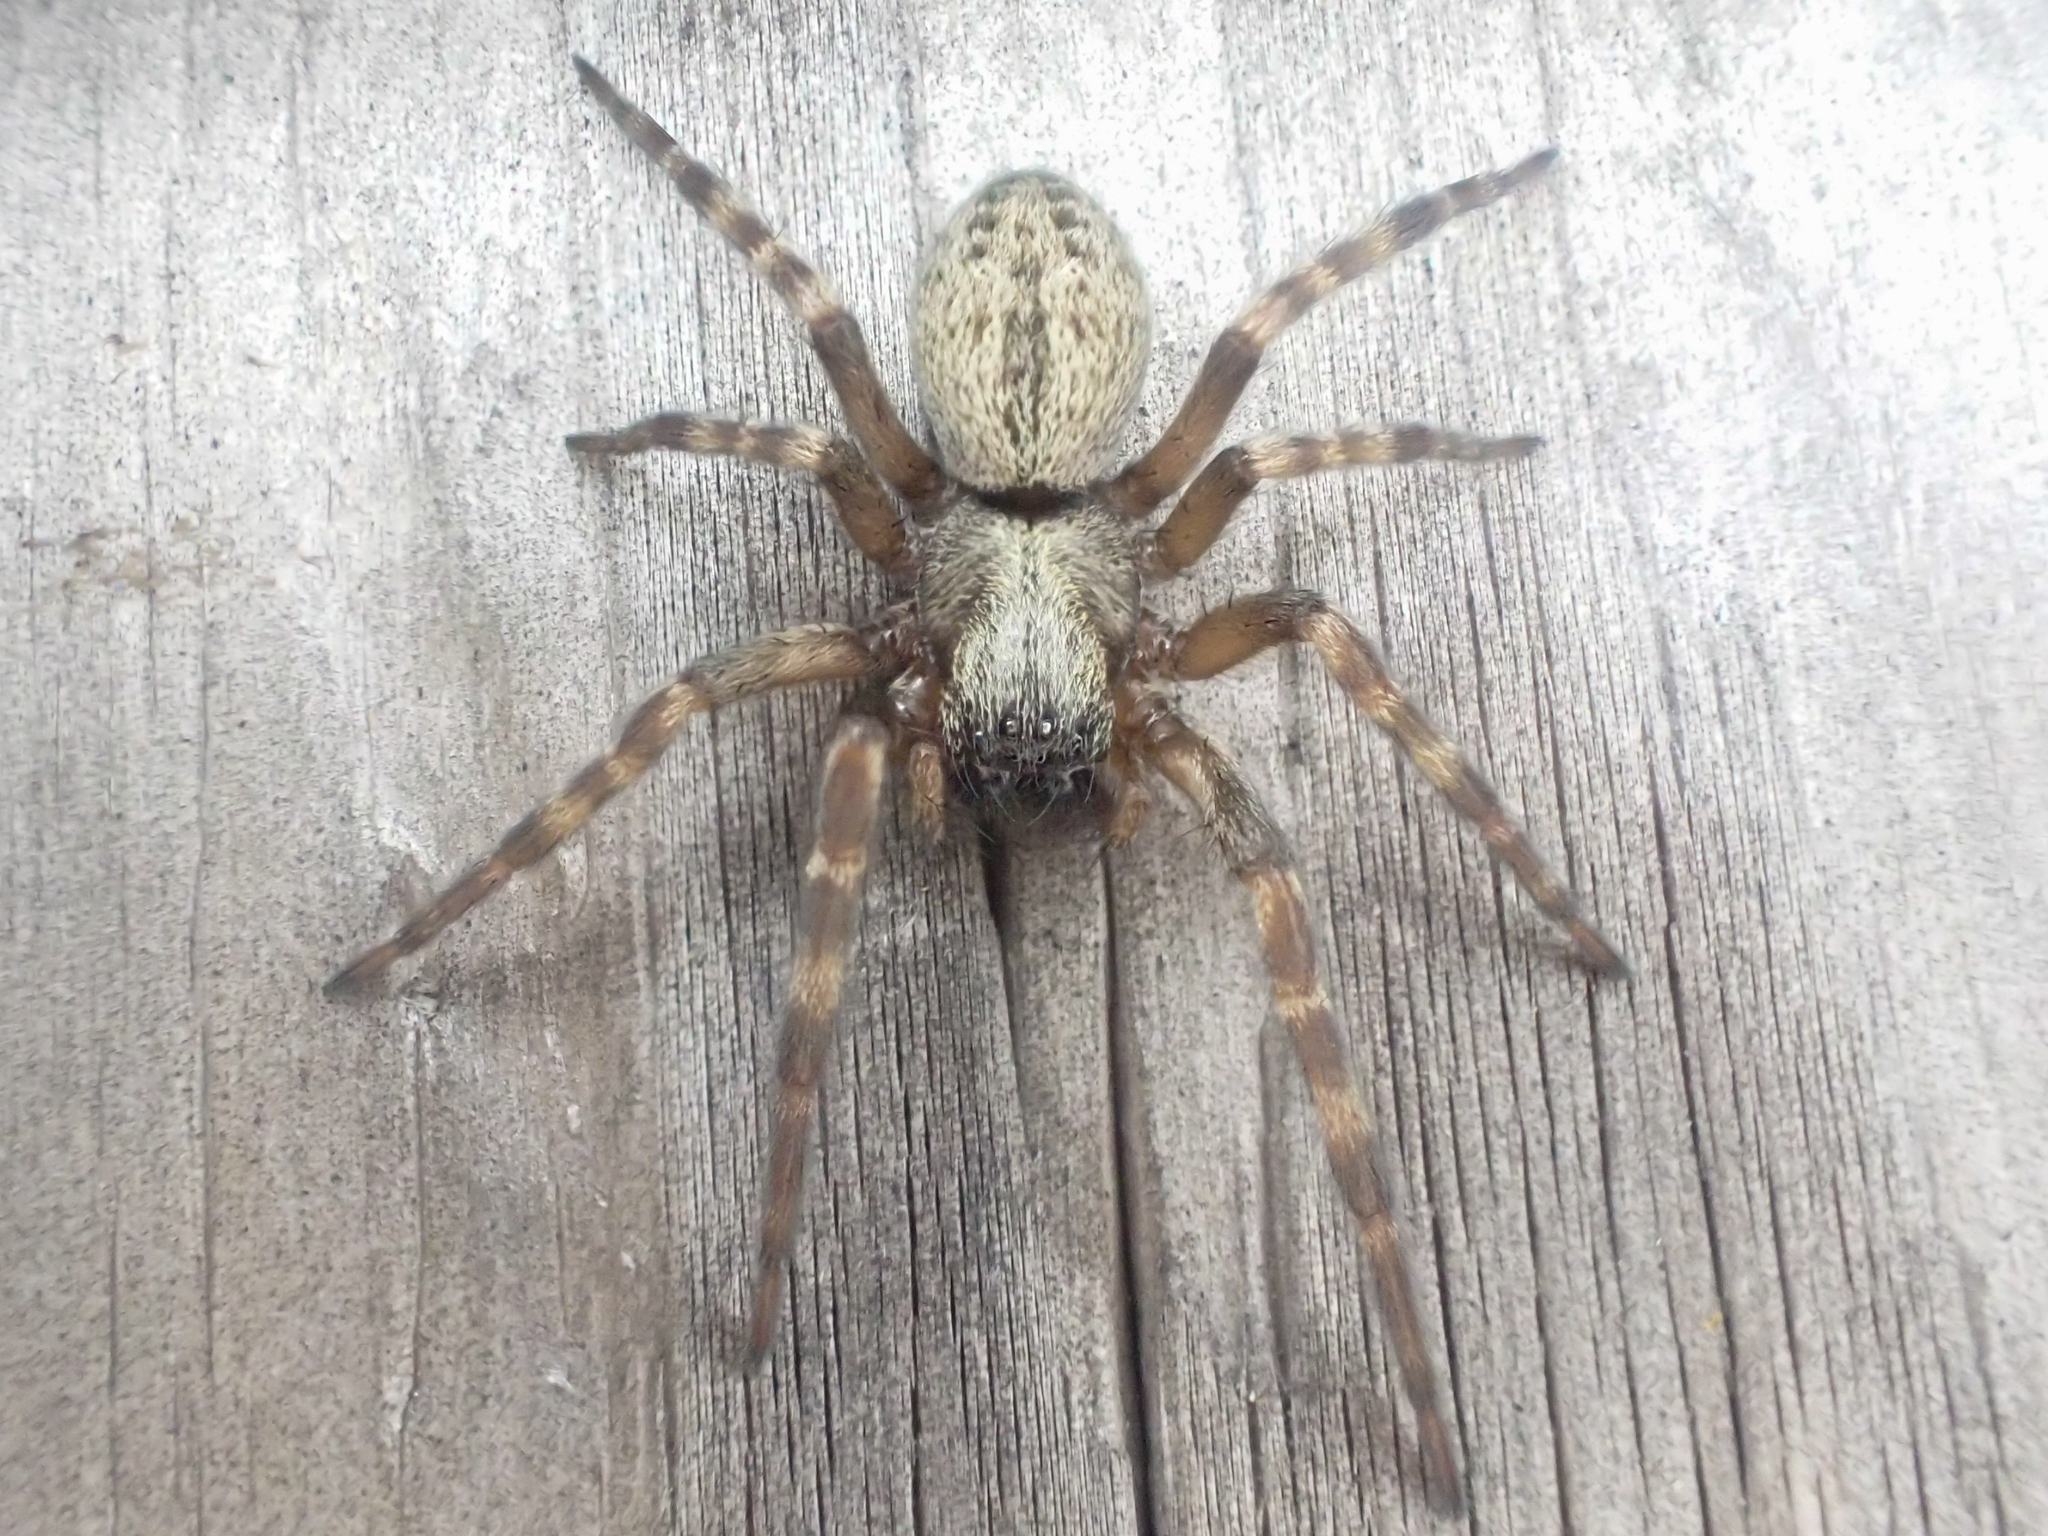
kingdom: Animalia
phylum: Arthropoda
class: Arachnida
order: Araneae
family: Desidae
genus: Badumna
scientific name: Badumna longinqua
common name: Gray house spider
